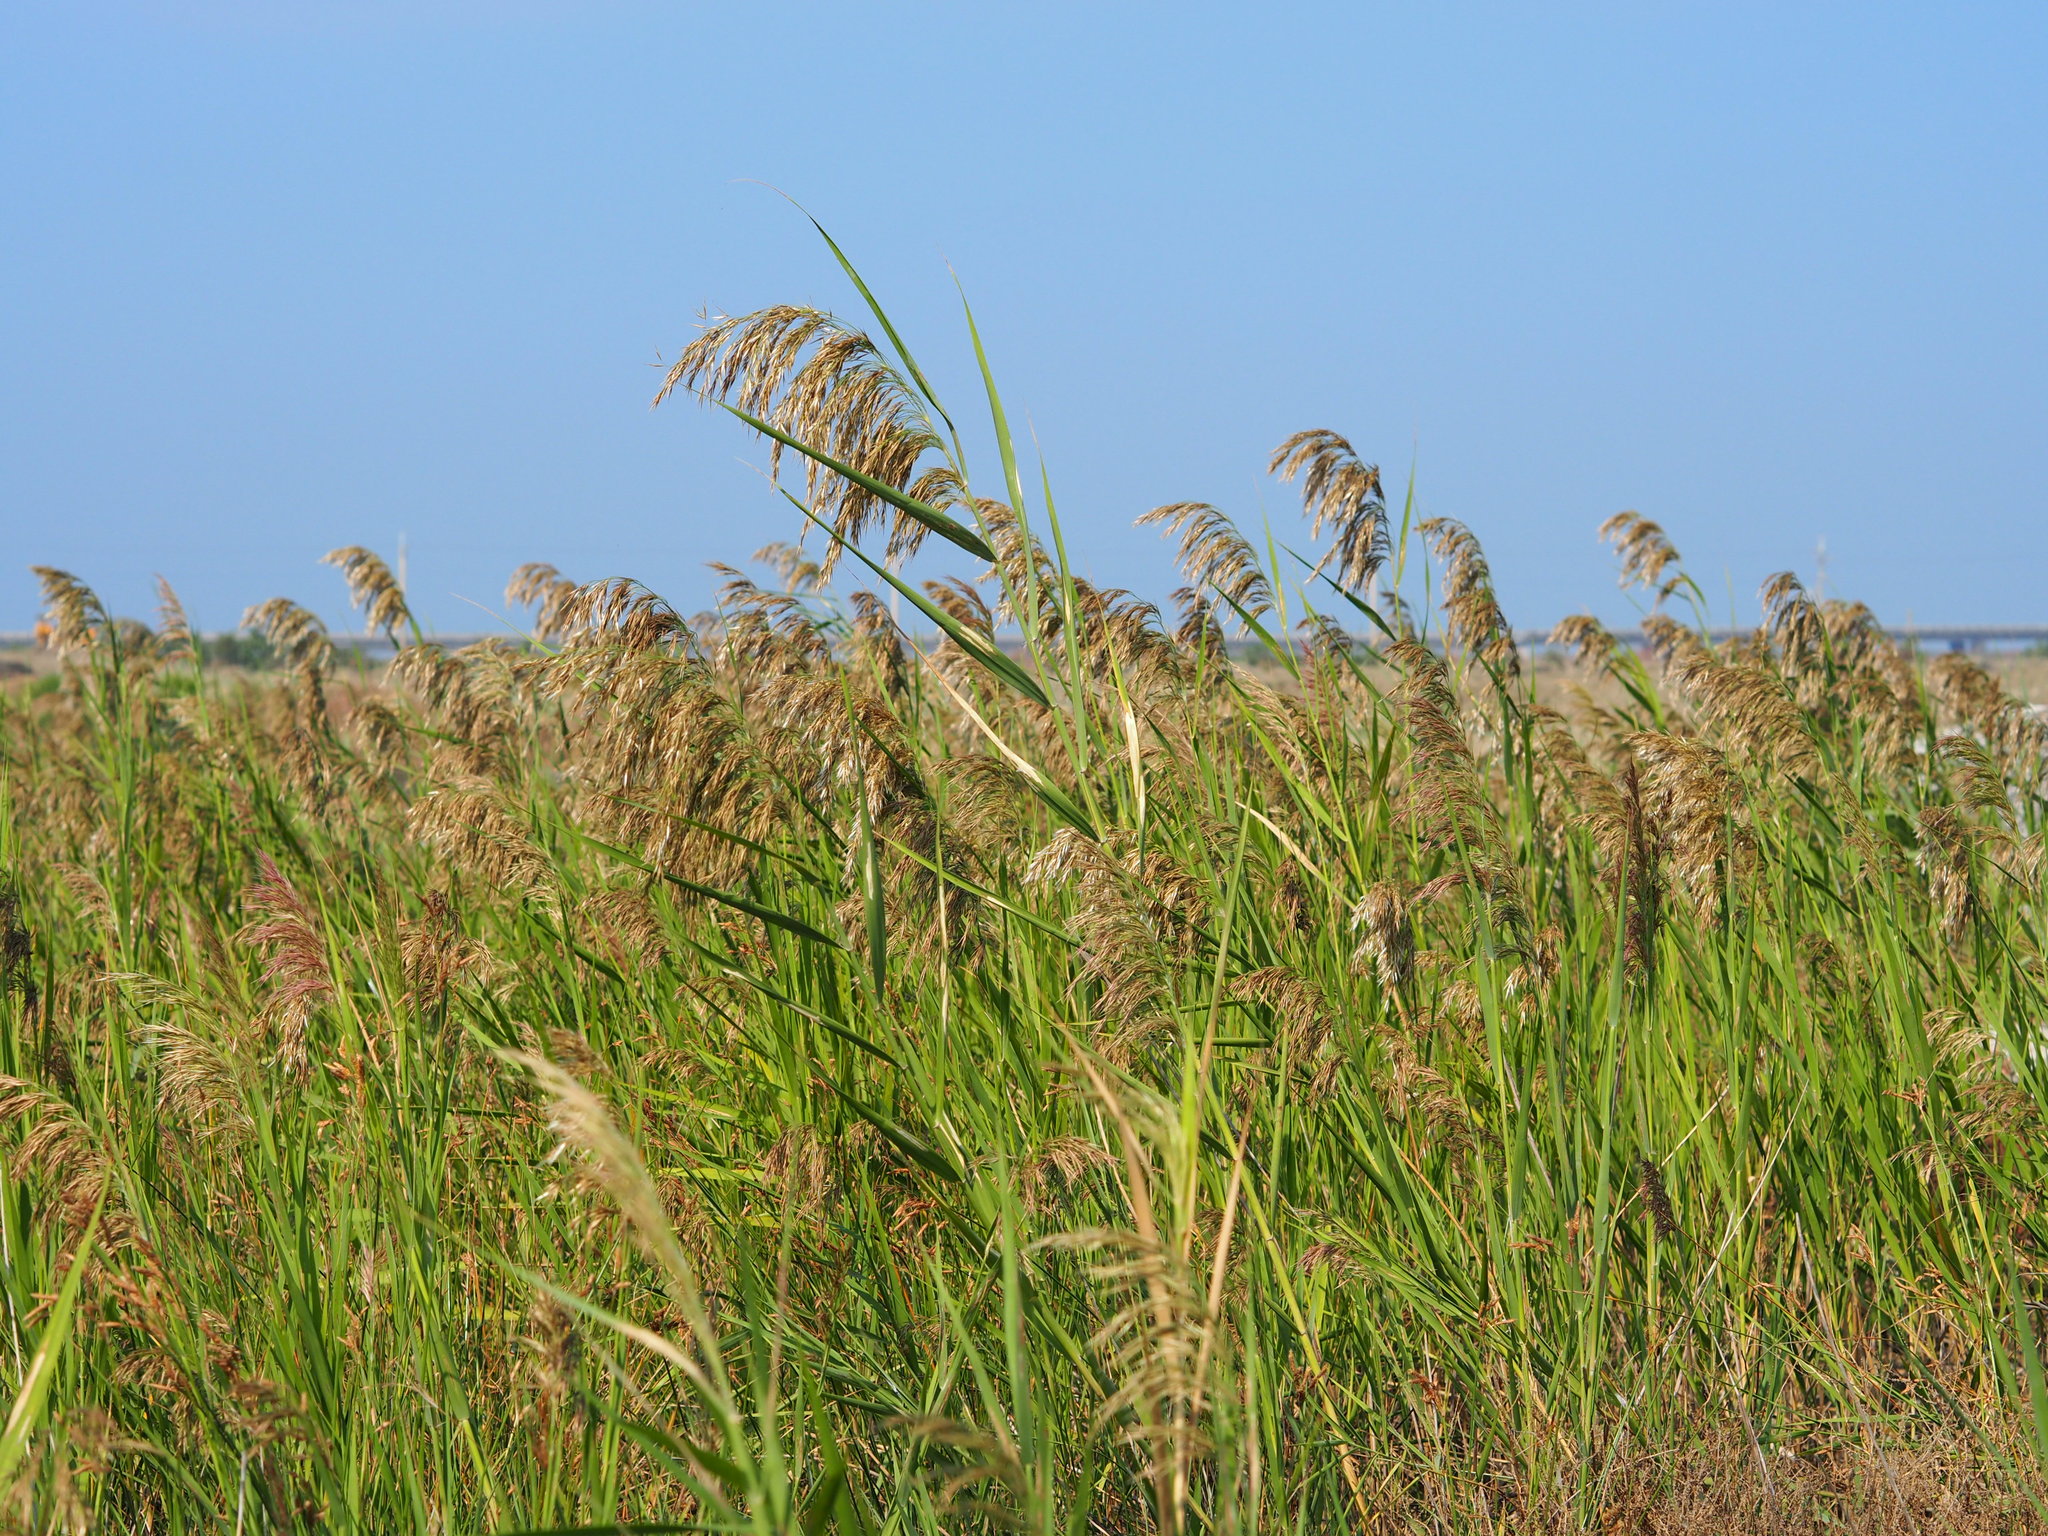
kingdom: Plantae
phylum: Tracheophyta
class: Liliopsida
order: Poales
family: Poaceae
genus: Phragmites
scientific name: Phragmites australis
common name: Common reed
